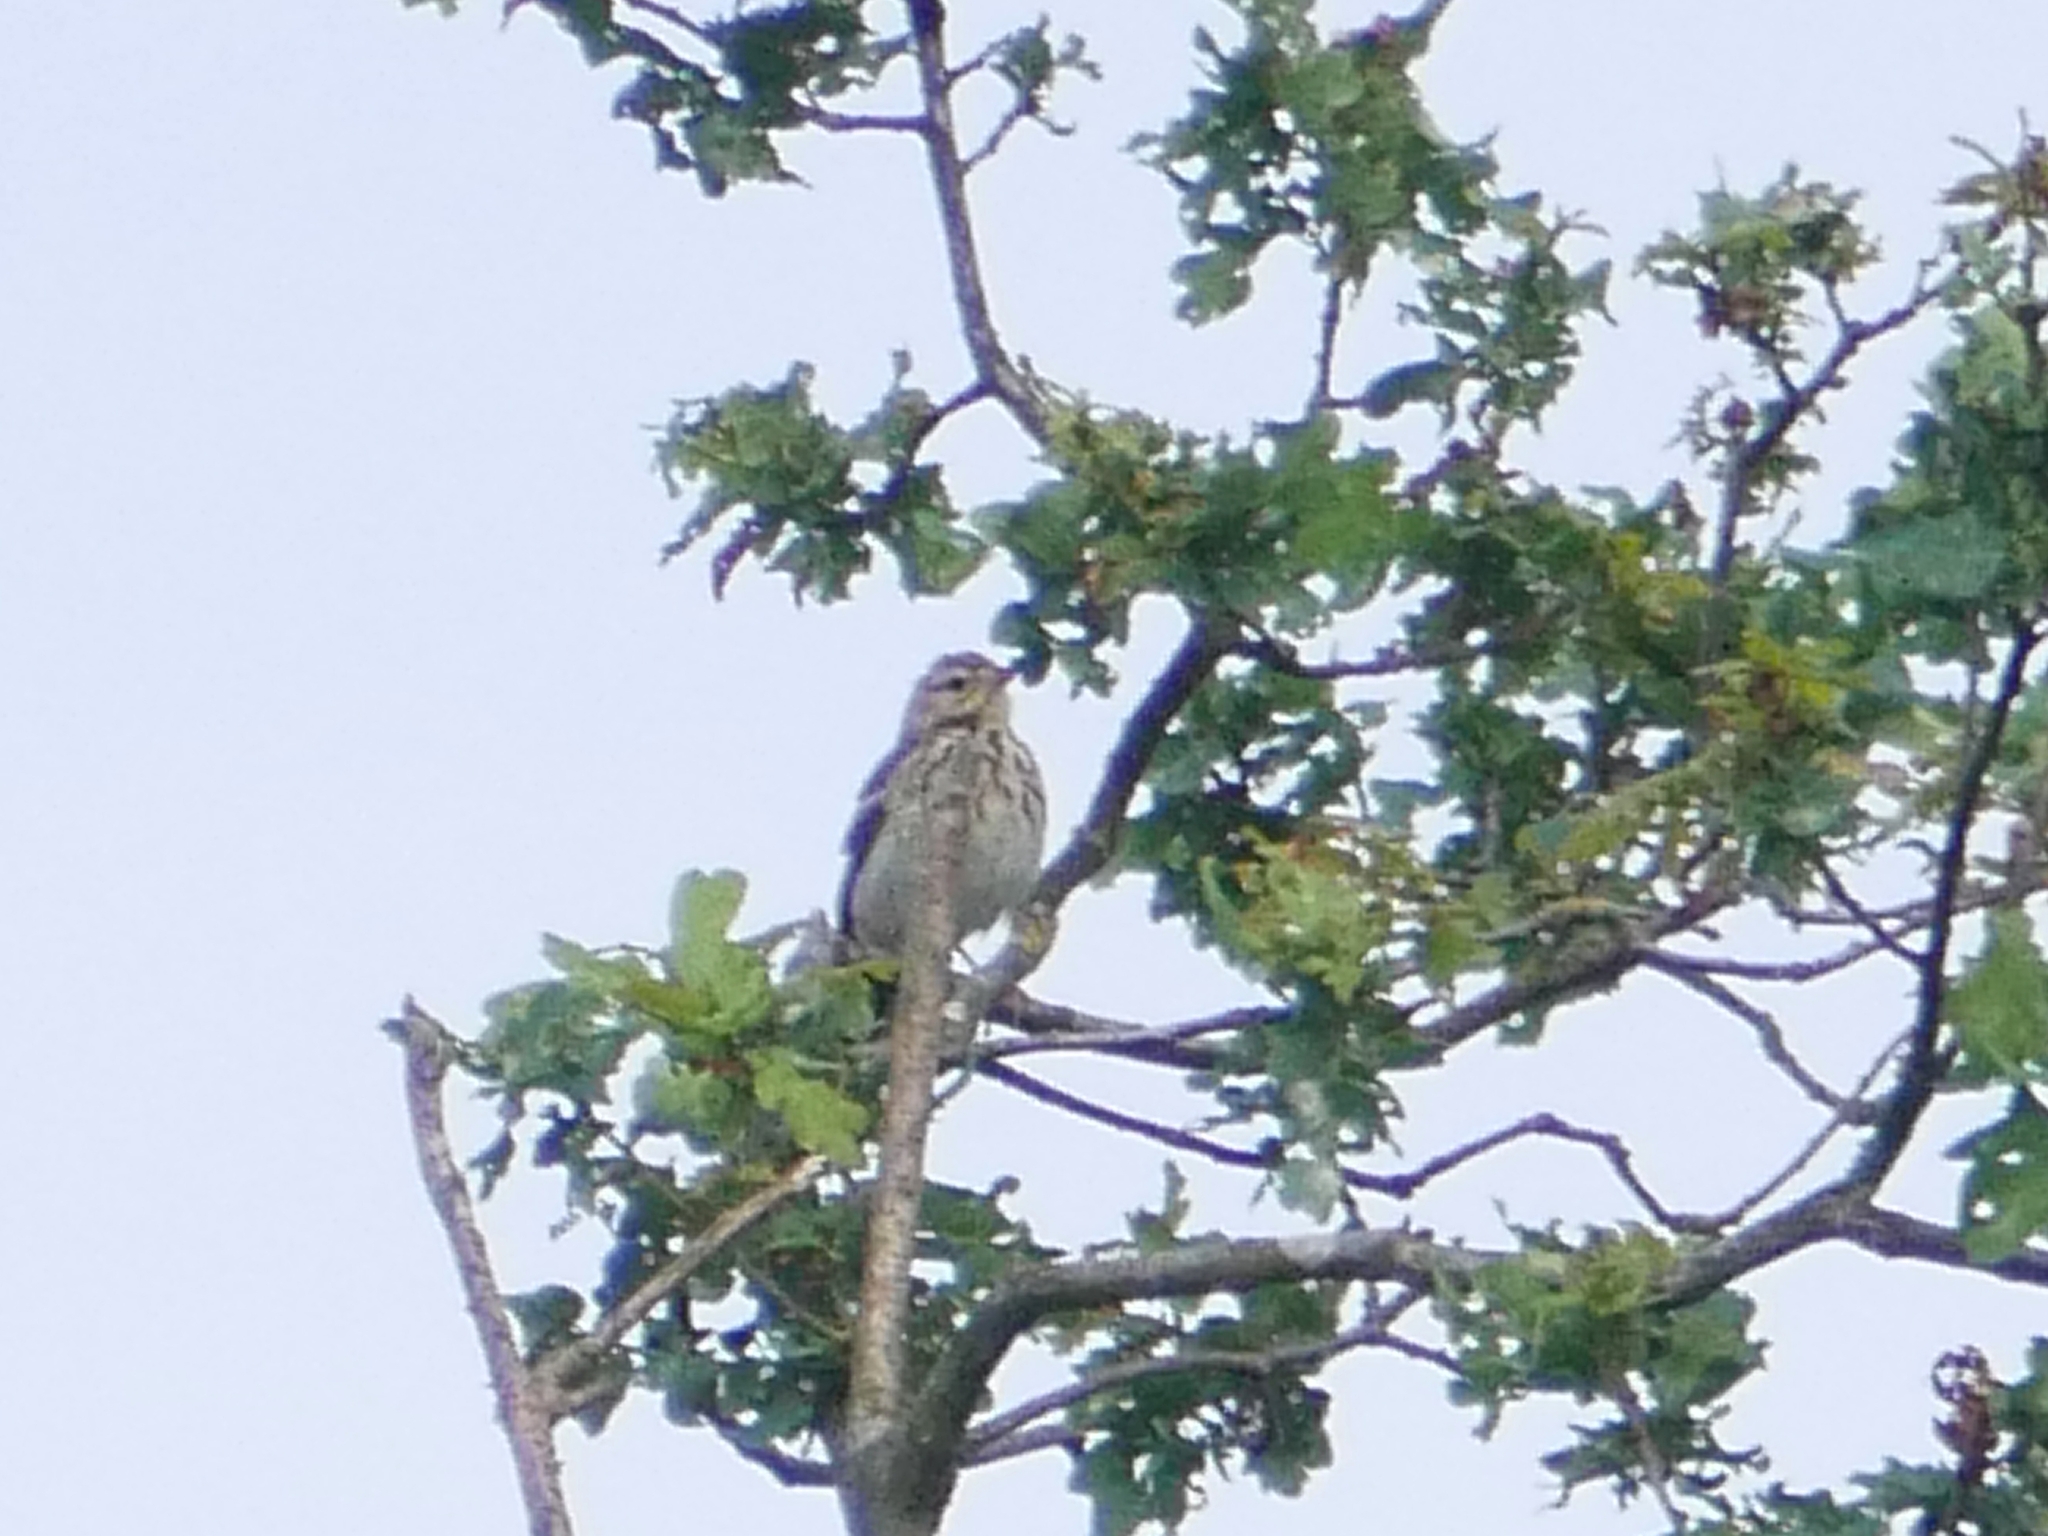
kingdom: Animalia
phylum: Chordata
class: Aves
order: Passeriformes
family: Motacillidae
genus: Anthus
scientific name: Anthus trivialis
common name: Tree pipit
